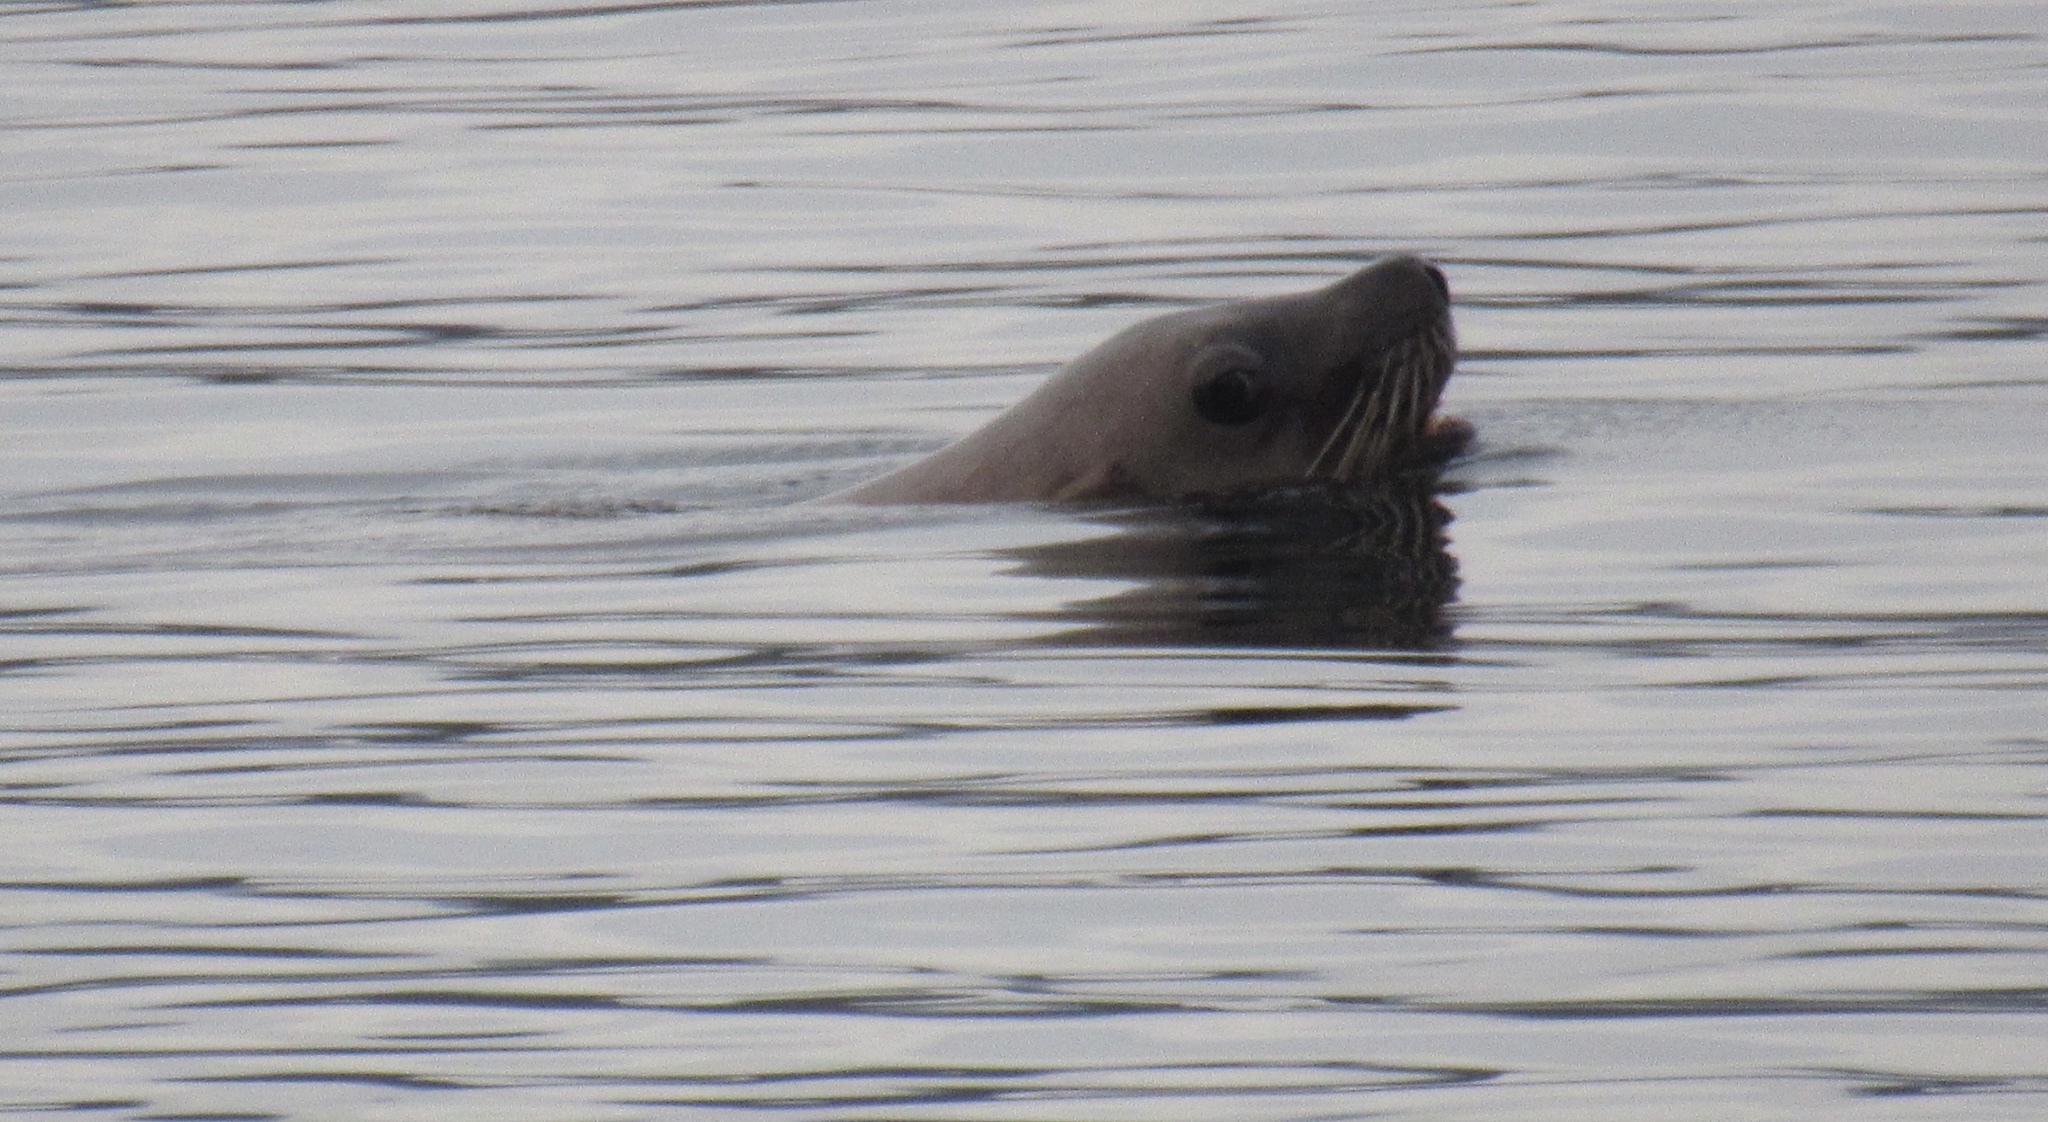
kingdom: Animalia
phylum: Chordata
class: Mammalia
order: Carnivora
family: Otariidae
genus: Eumetopias
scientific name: Eumetopias jubatus
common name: Steller sea lion
